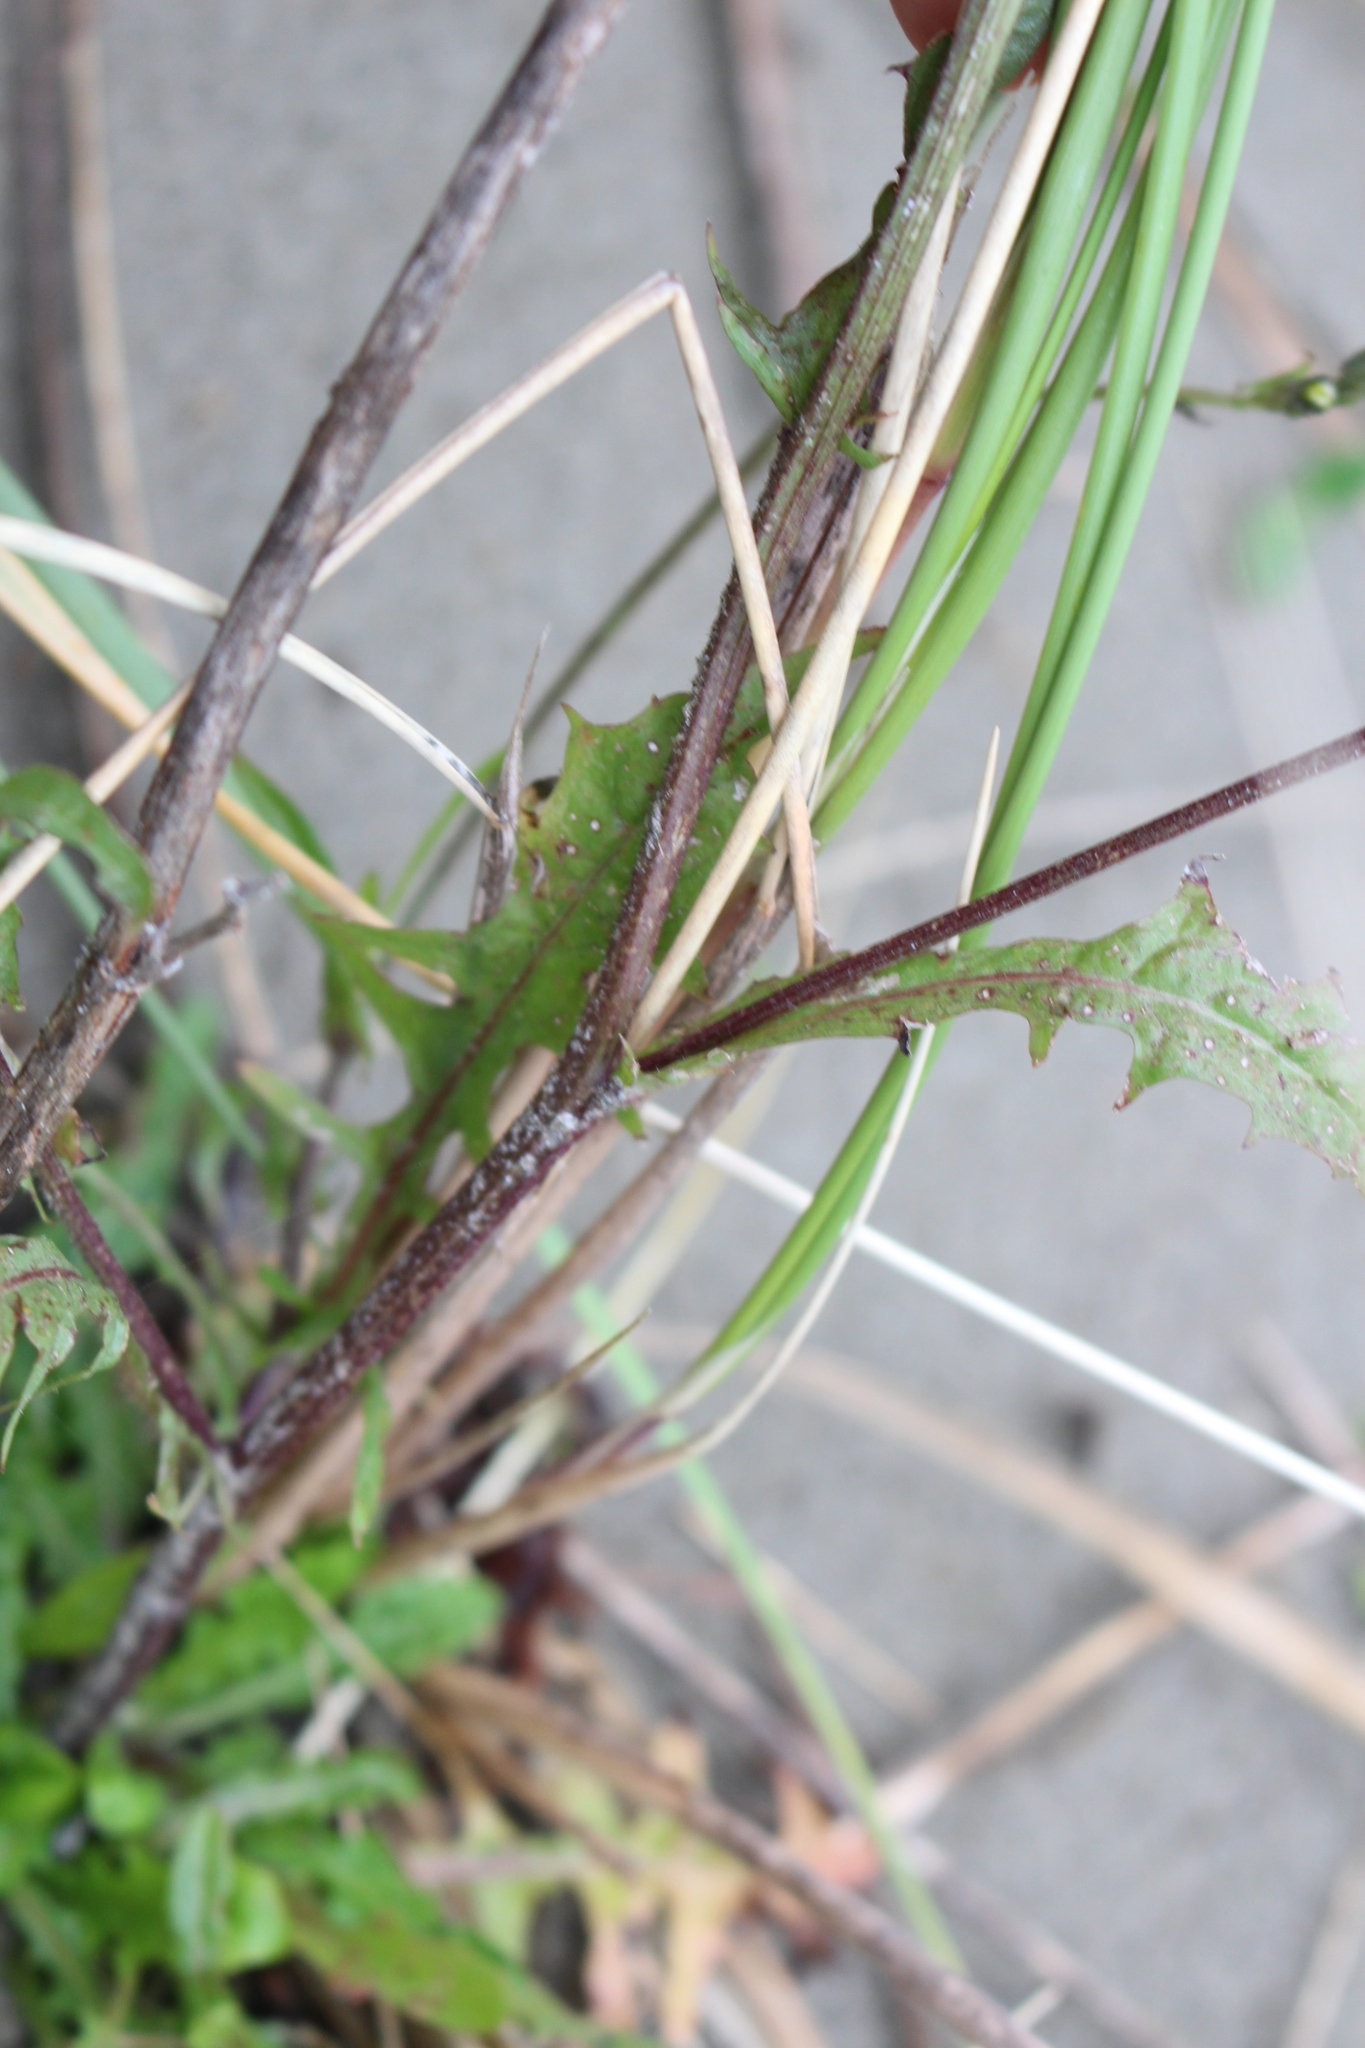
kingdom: Plantae
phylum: Tracheophyta
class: Magnoliopsida
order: Asterales
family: Asteraceae
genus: Crepis
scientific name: Crepis capillaris
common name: Smooth hawksbeard
